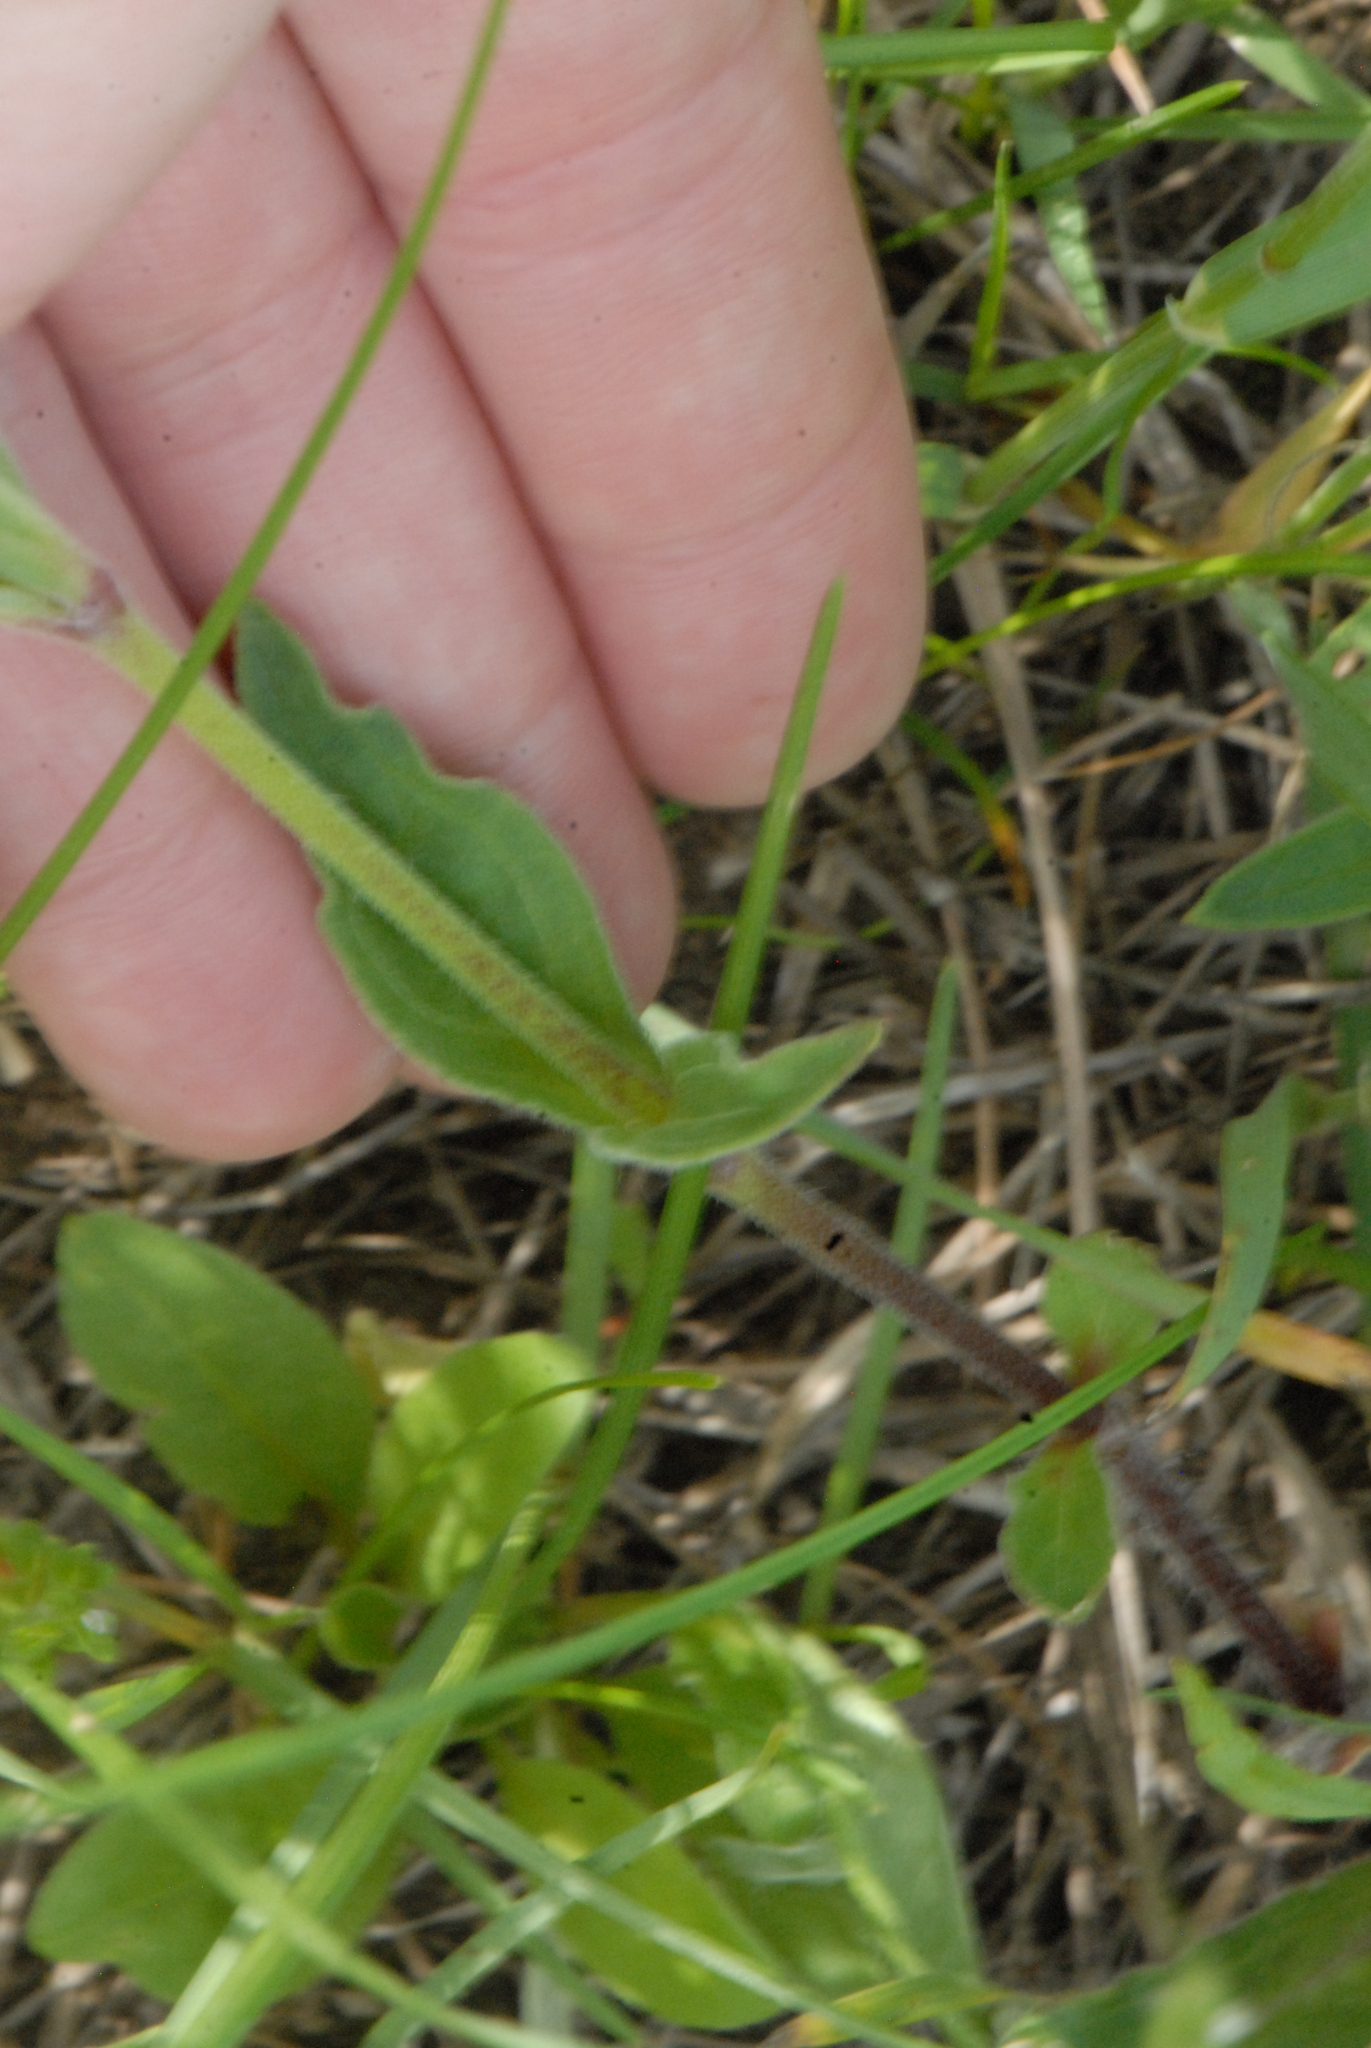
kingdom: Plantae
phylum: Tracheophyta
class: Magnoliopsida
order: Caryophyllales
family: Caryophyllaceae
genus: Silene
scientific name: Silene latifolia
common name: White campion
